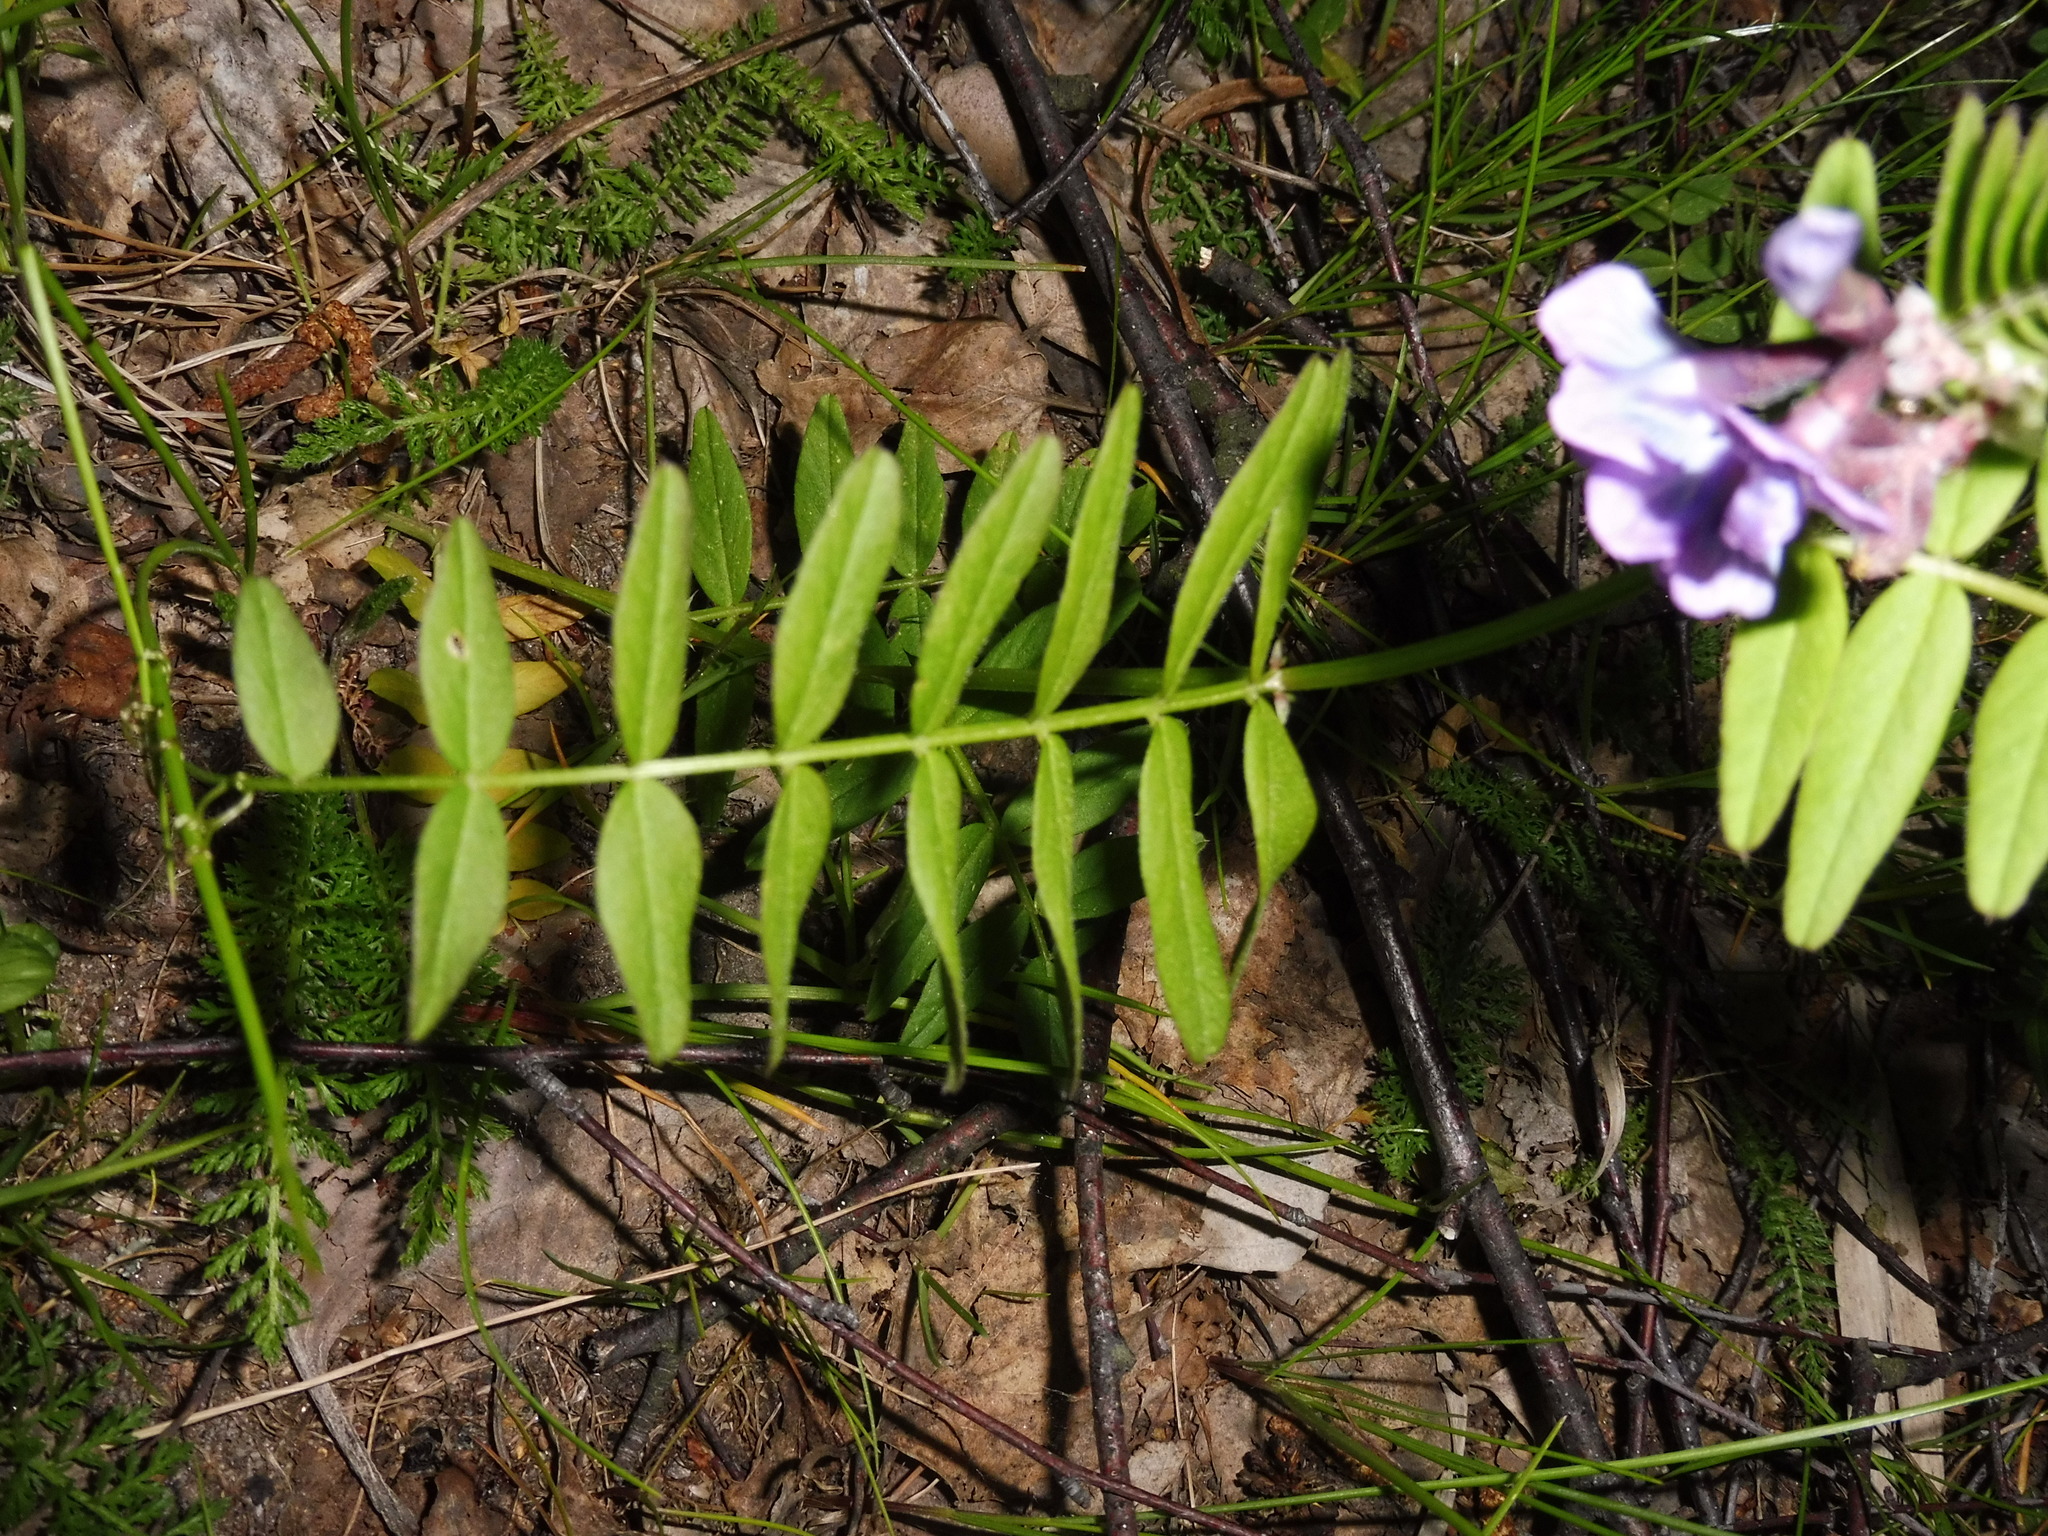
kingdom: Plantae
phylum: Tracheophyta
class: Magnoliopsida
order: Fabales
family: Fabaceae
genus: Vicia
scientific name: Vicia sepium
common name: Bush vetch
